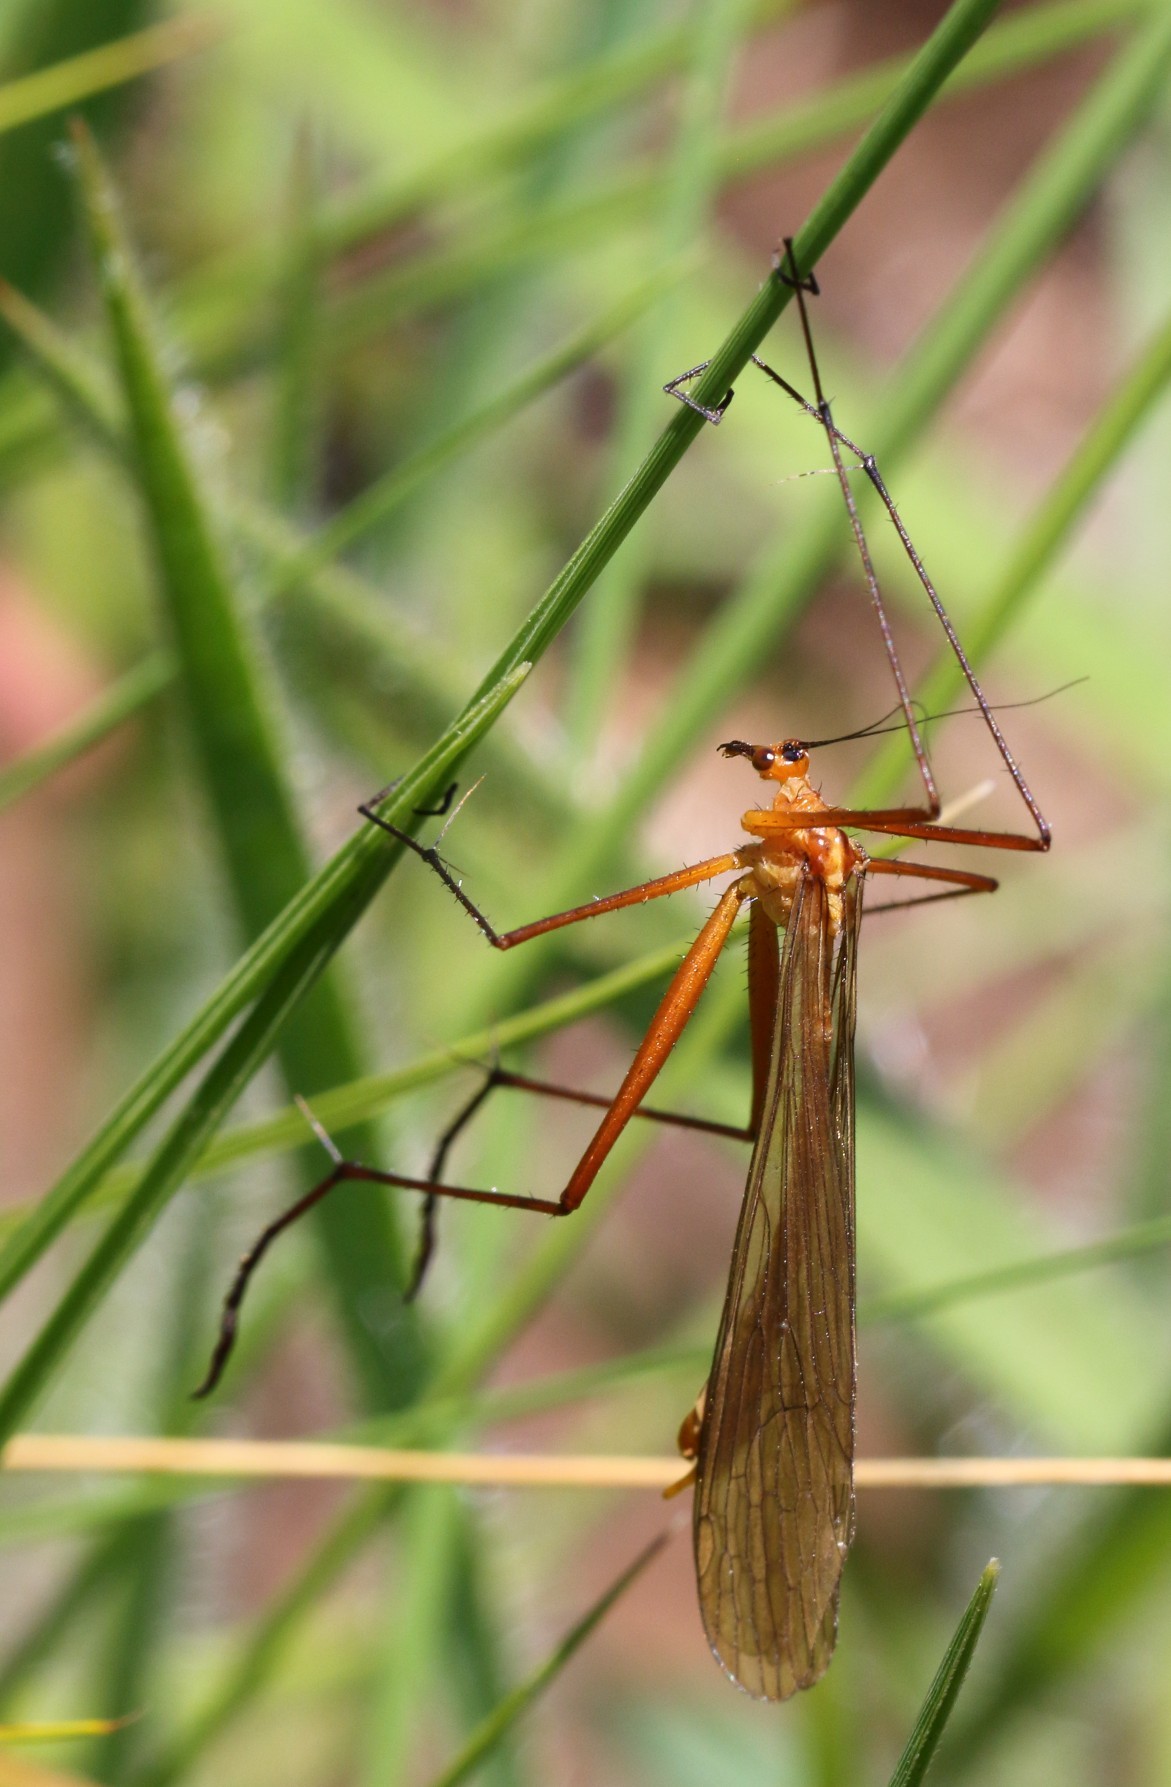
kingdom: Animalia
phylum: Arthropoda
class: Insecta
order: Mecoptera
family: Bittacidae
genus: Bittacus
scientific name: Bittacus kimminsi
